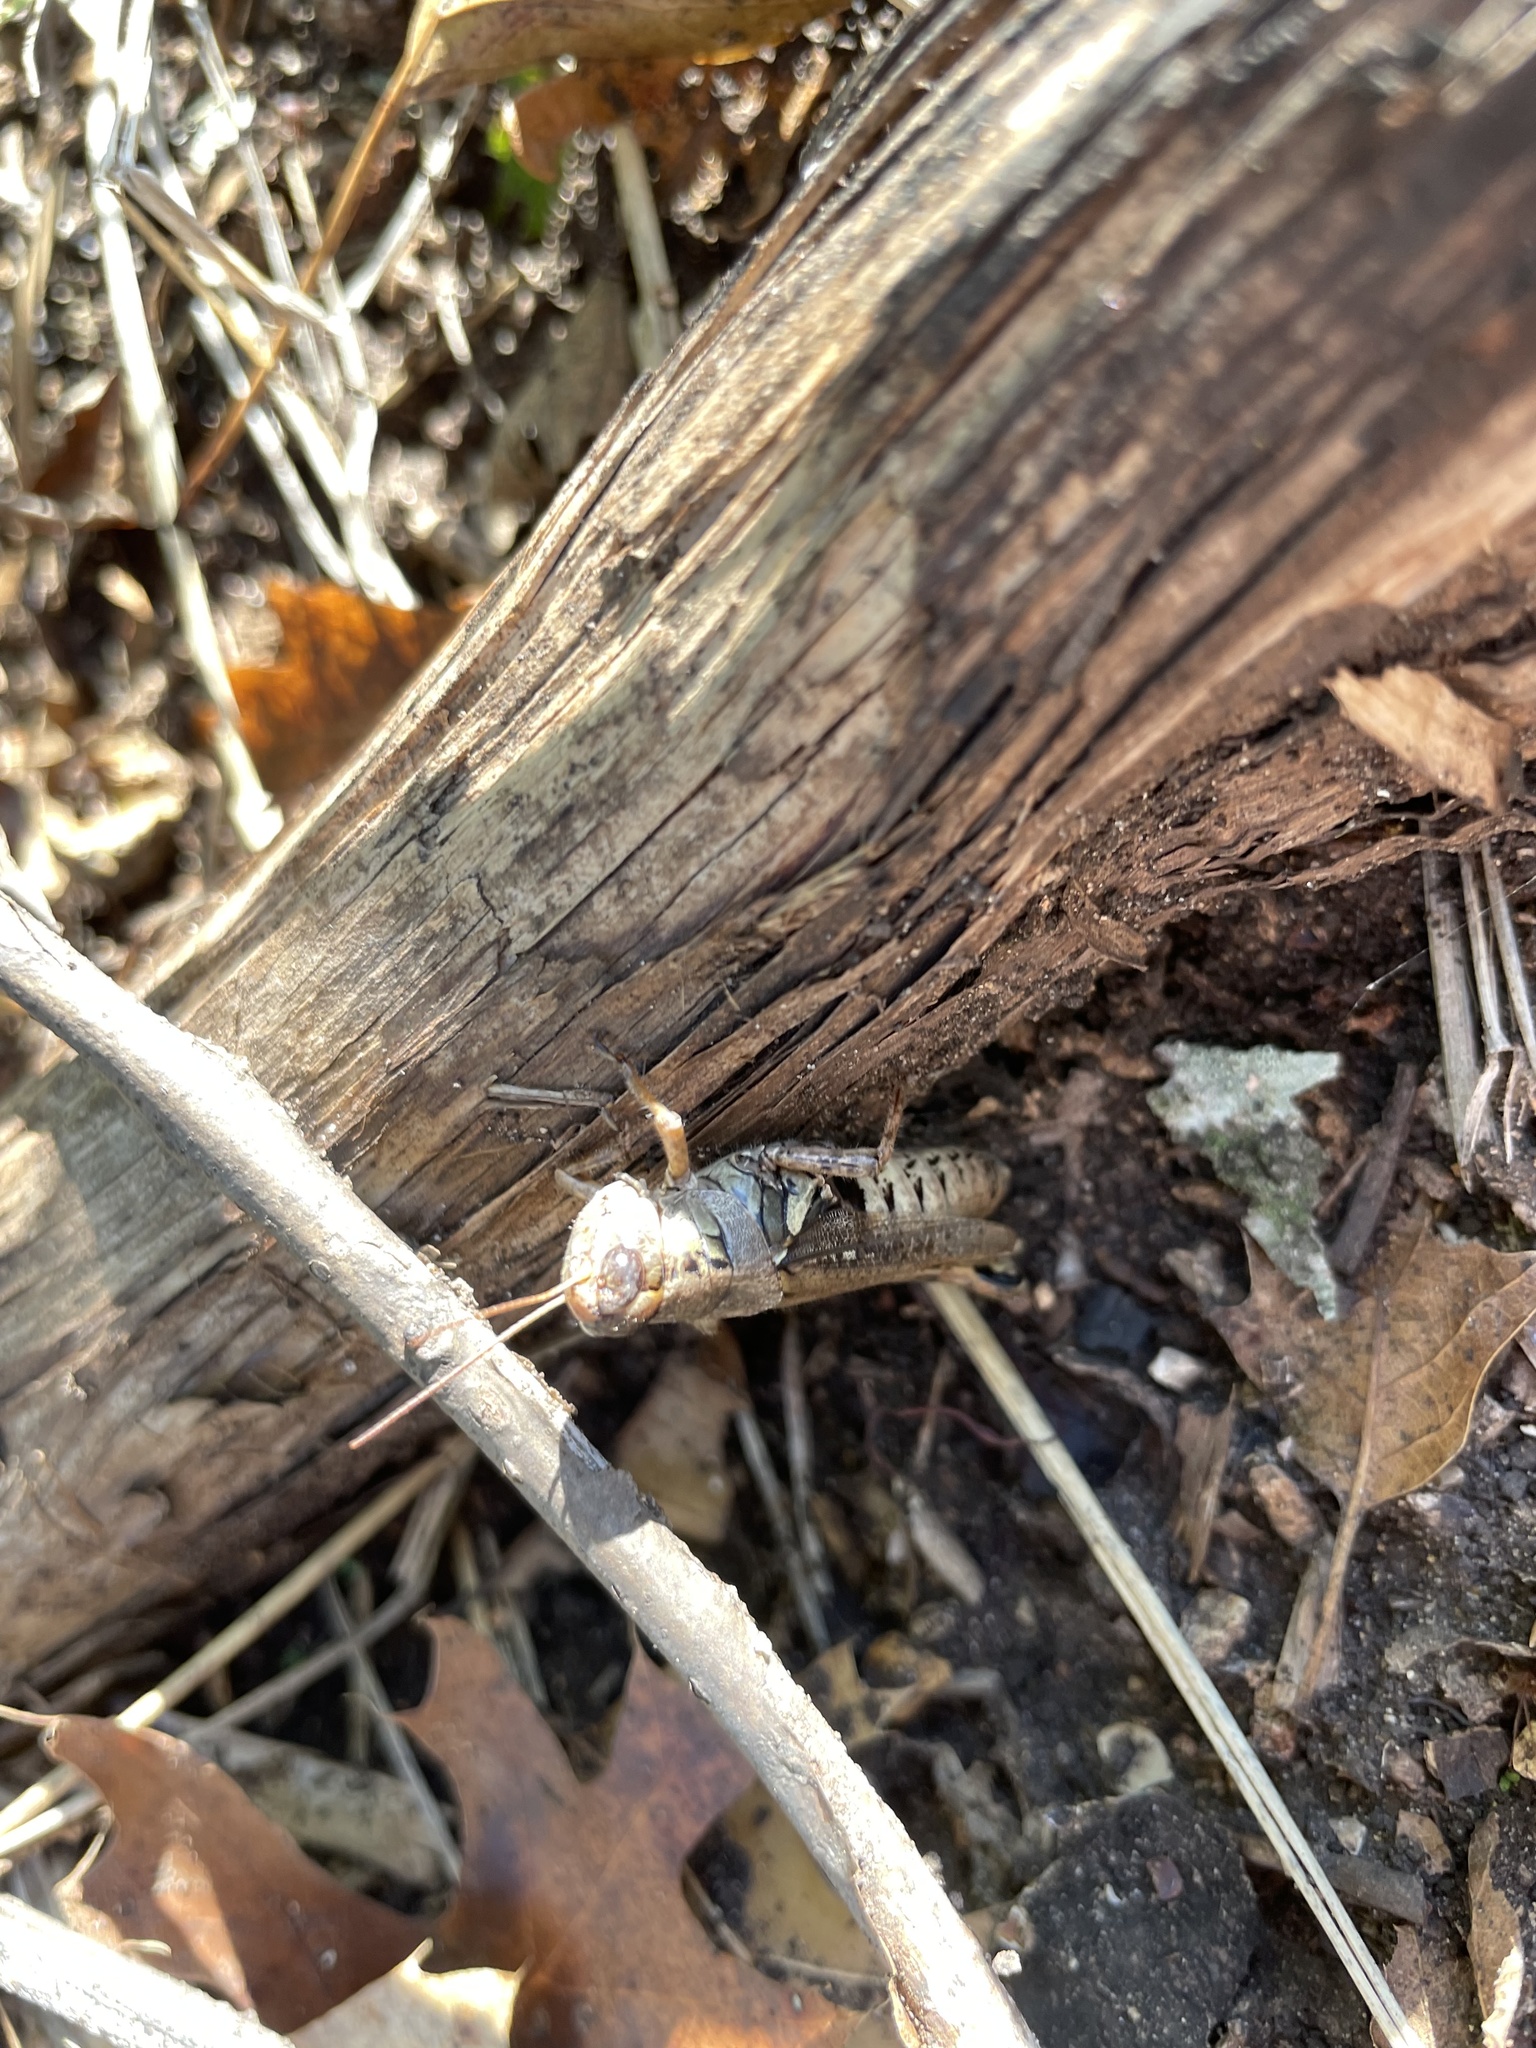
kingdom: Animalia
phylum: Arthropoda
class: Insecta
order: Orthoptera
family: Acrididae
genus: Melanoplus
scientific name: Melanoplus ponderosus
